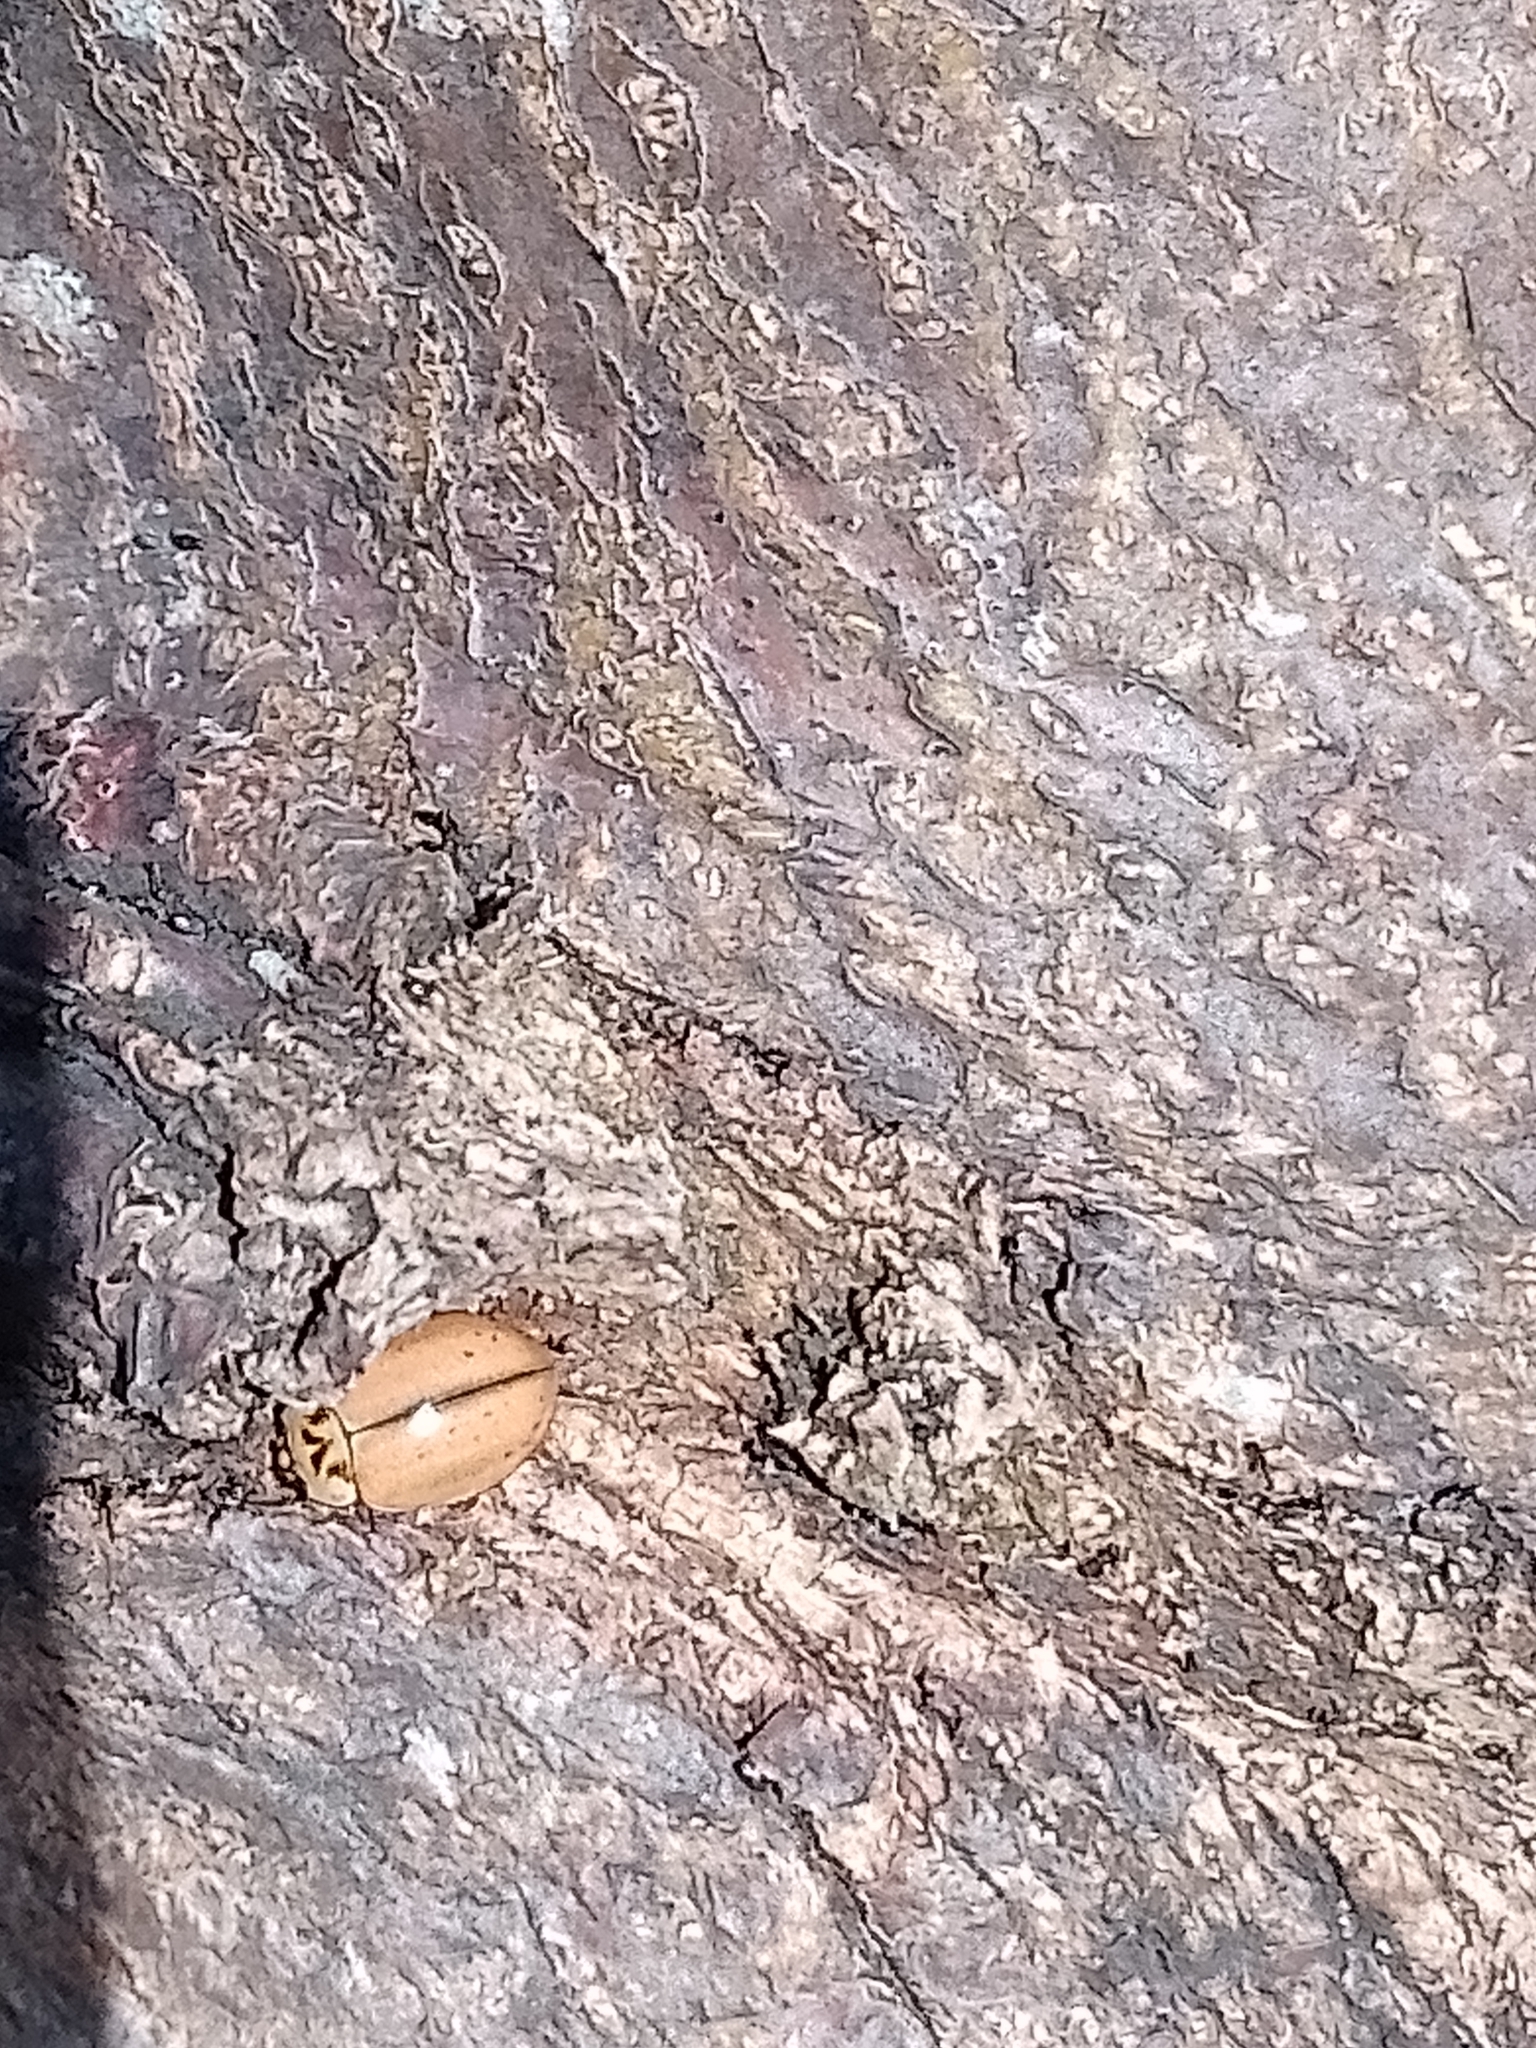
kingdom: Animalia
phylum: Arthropoda
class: Insecta
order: Coleoptera
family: Coccinellidae
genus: Aphidecta
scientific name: Aphidecta obliterata
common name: Larch ladybird
